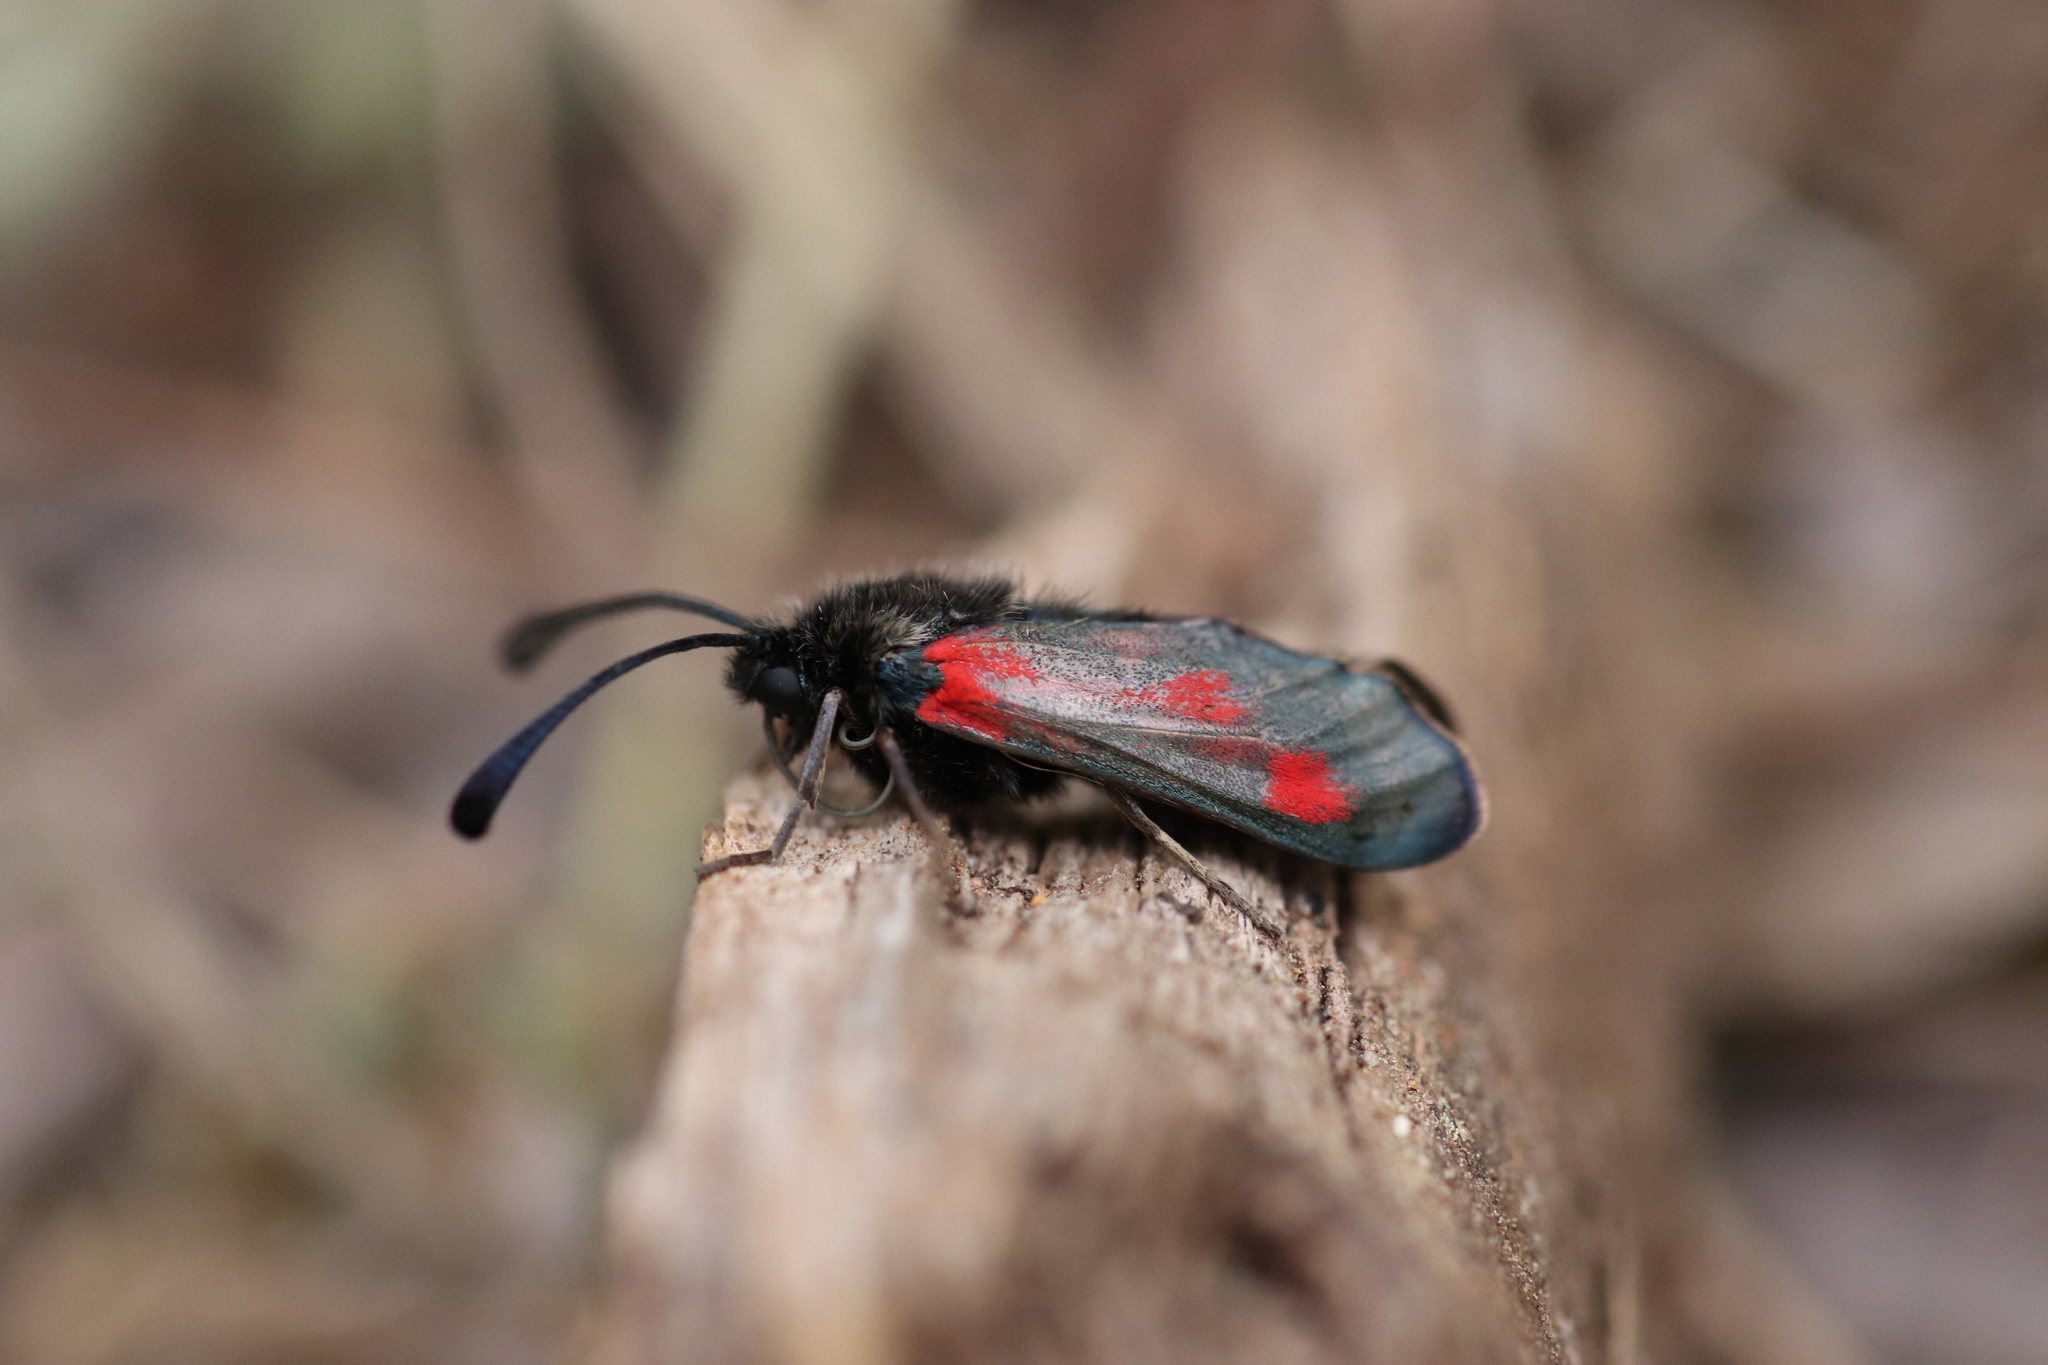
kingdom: Animalia
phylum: Arthropoda
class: Insecta
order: Lepidoptera
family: Zygaenidae
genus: Zygaena
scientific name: Zygaena sarpedon
